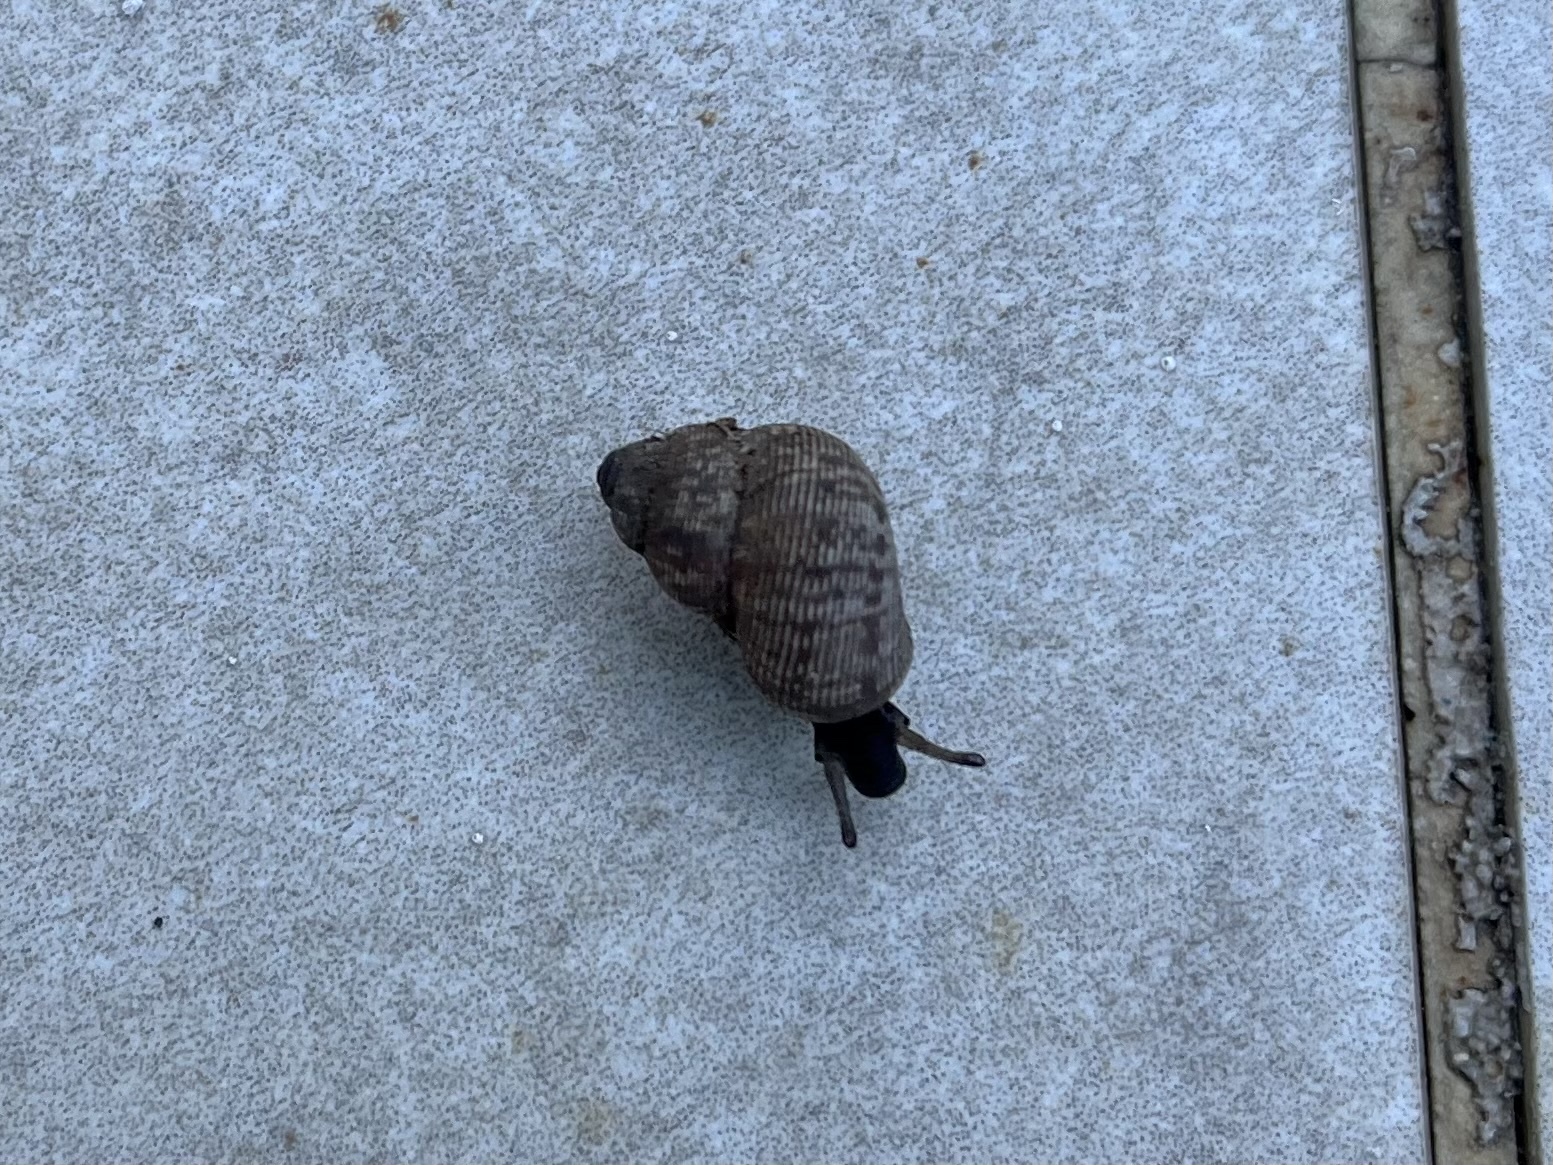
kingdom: Animalia
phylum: Mollusca
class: Gastropoda
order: Littorinimorpha
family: Pomatiidae
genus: Pomatias
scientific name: Pomatias elegans
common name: Red-mouthed snail
